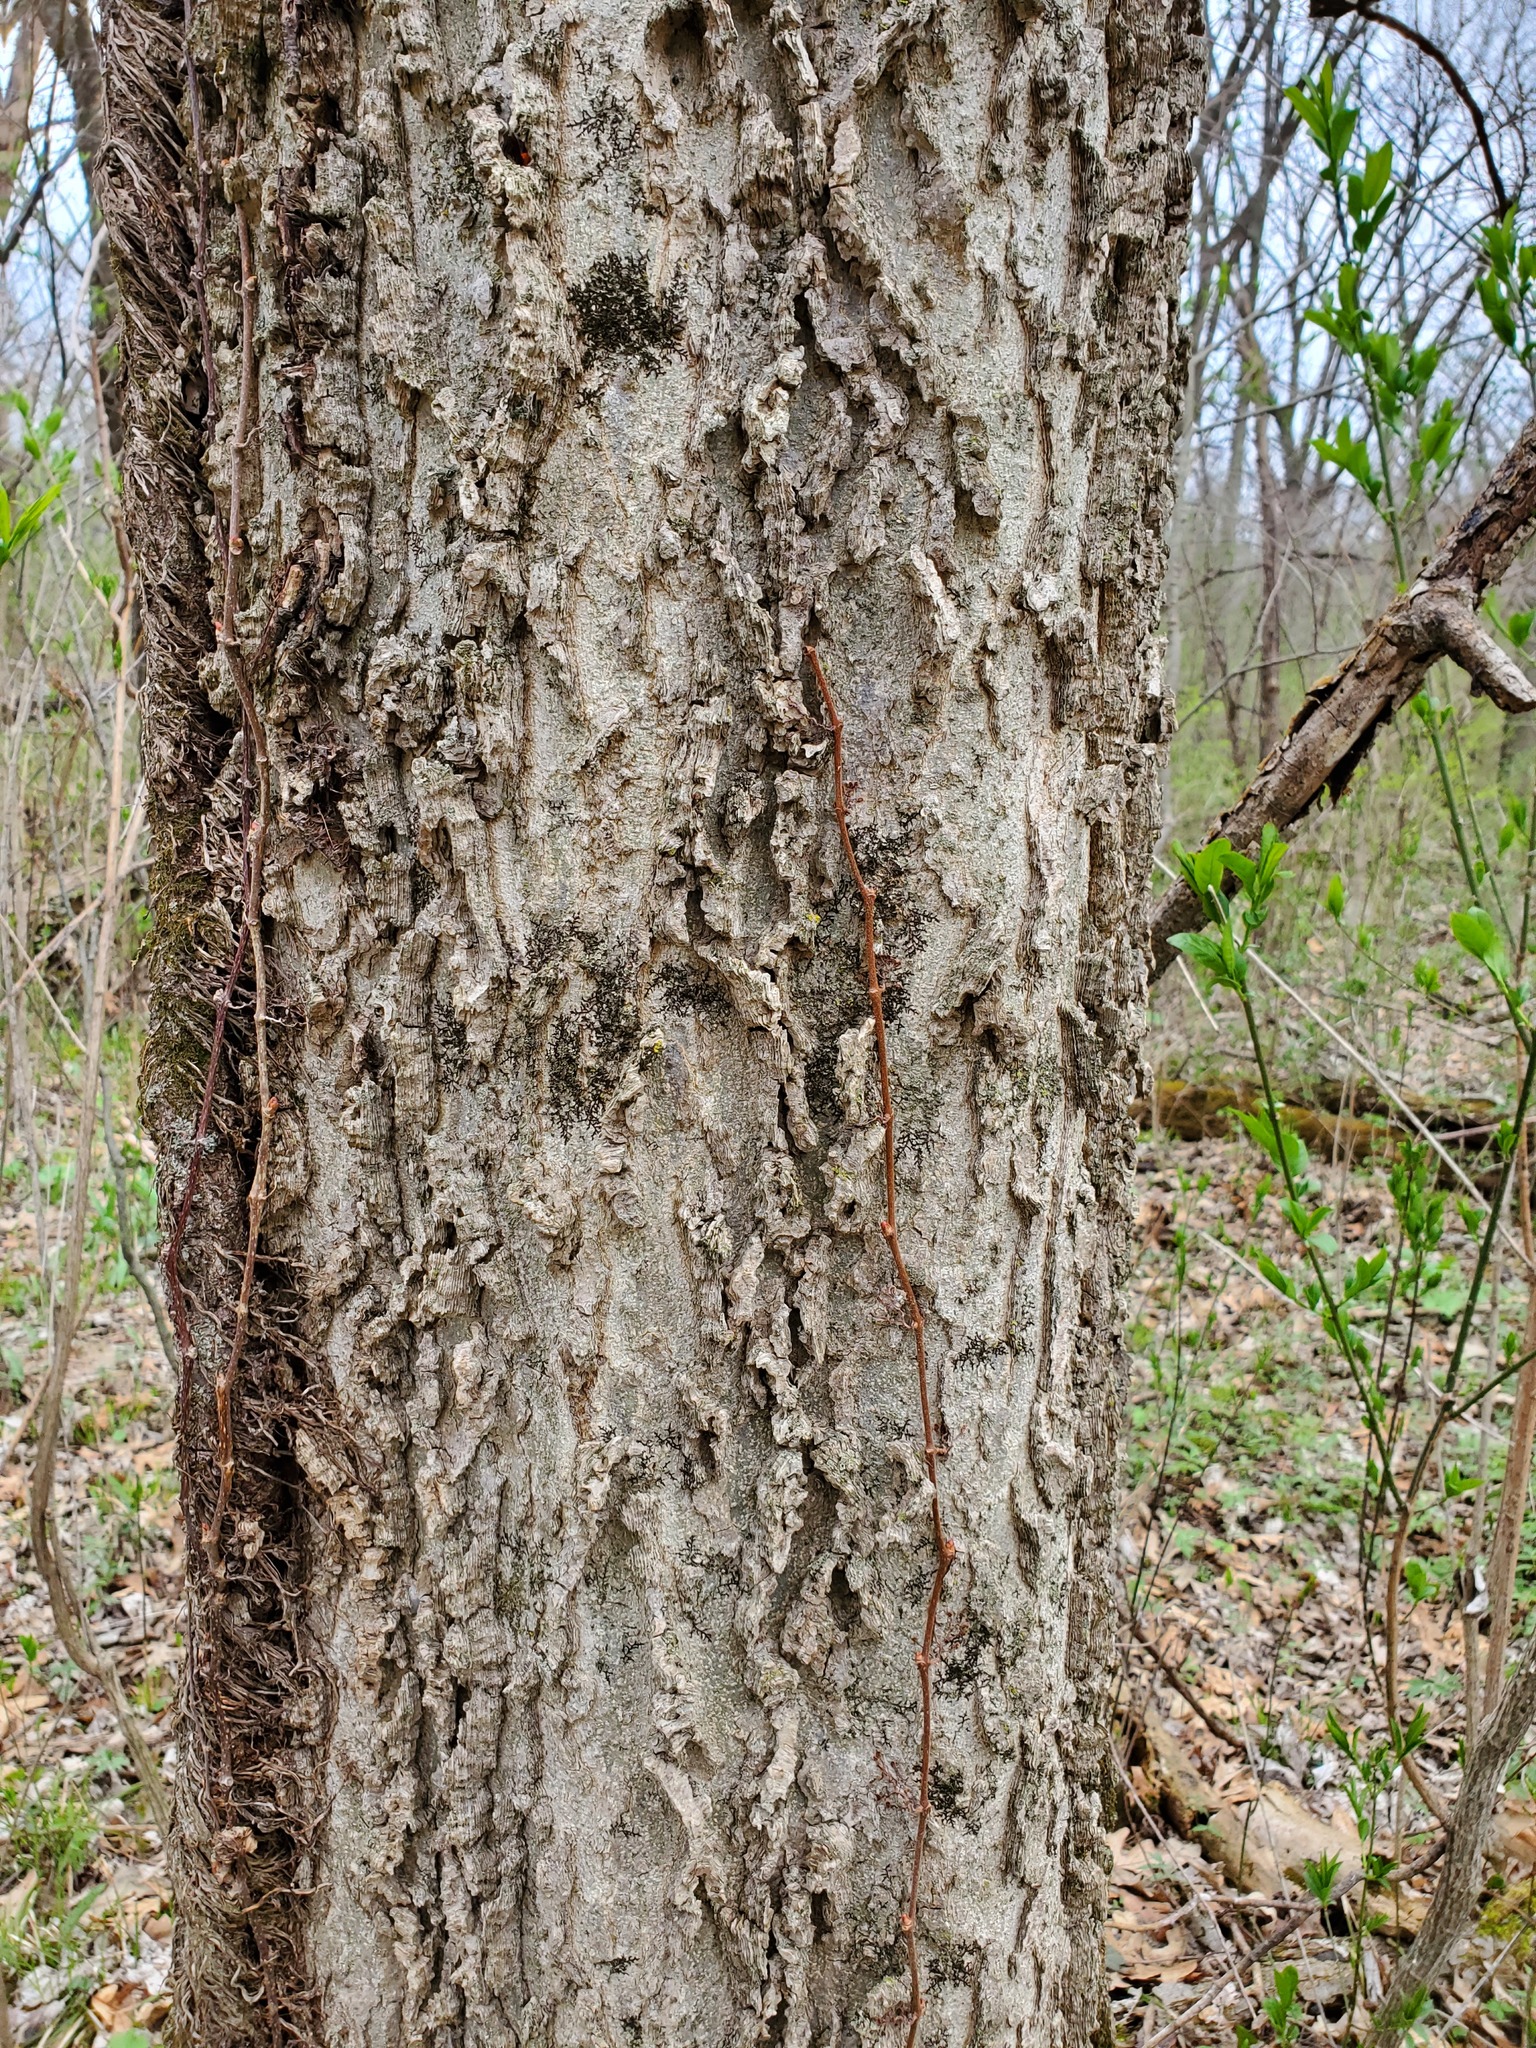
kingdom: Plantae
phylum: Tracheophyta
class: Magnoliopsida
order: Rosales
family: Cannabaceae
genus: Celtis
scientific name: Celtis occidentalis
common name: Common hackberry
